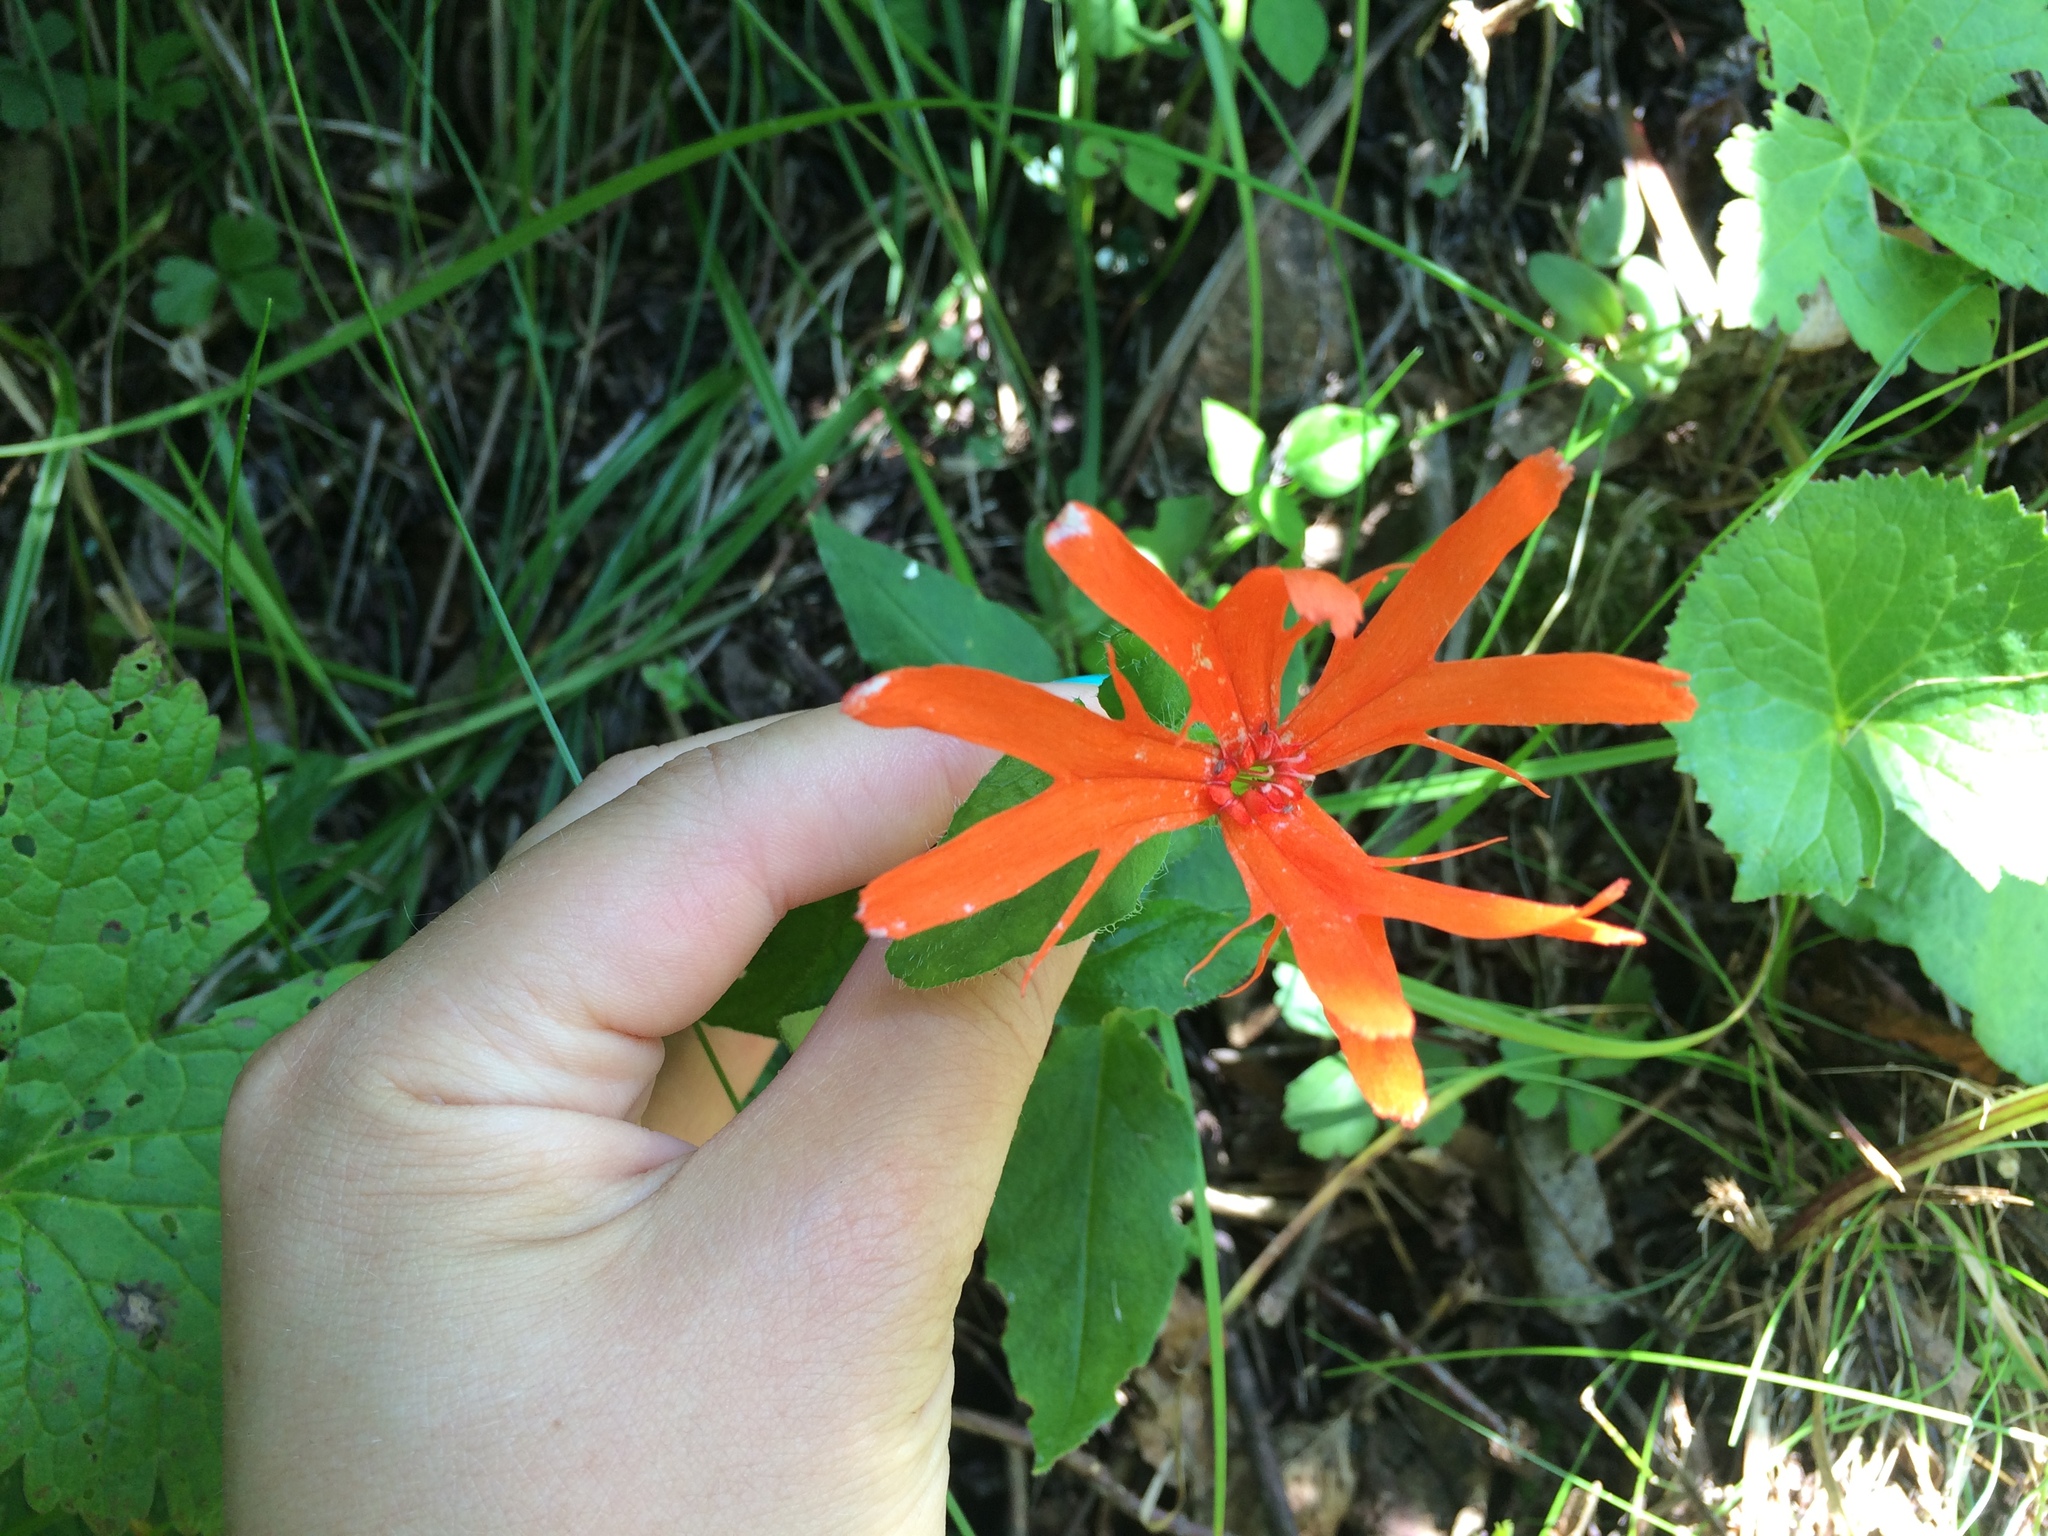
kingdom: Plantae
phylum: Tracheophyta
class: Magnoliopsida
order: Caryophyllales
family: Caryophyllaceae
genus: Silene
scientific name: Silene banksia
